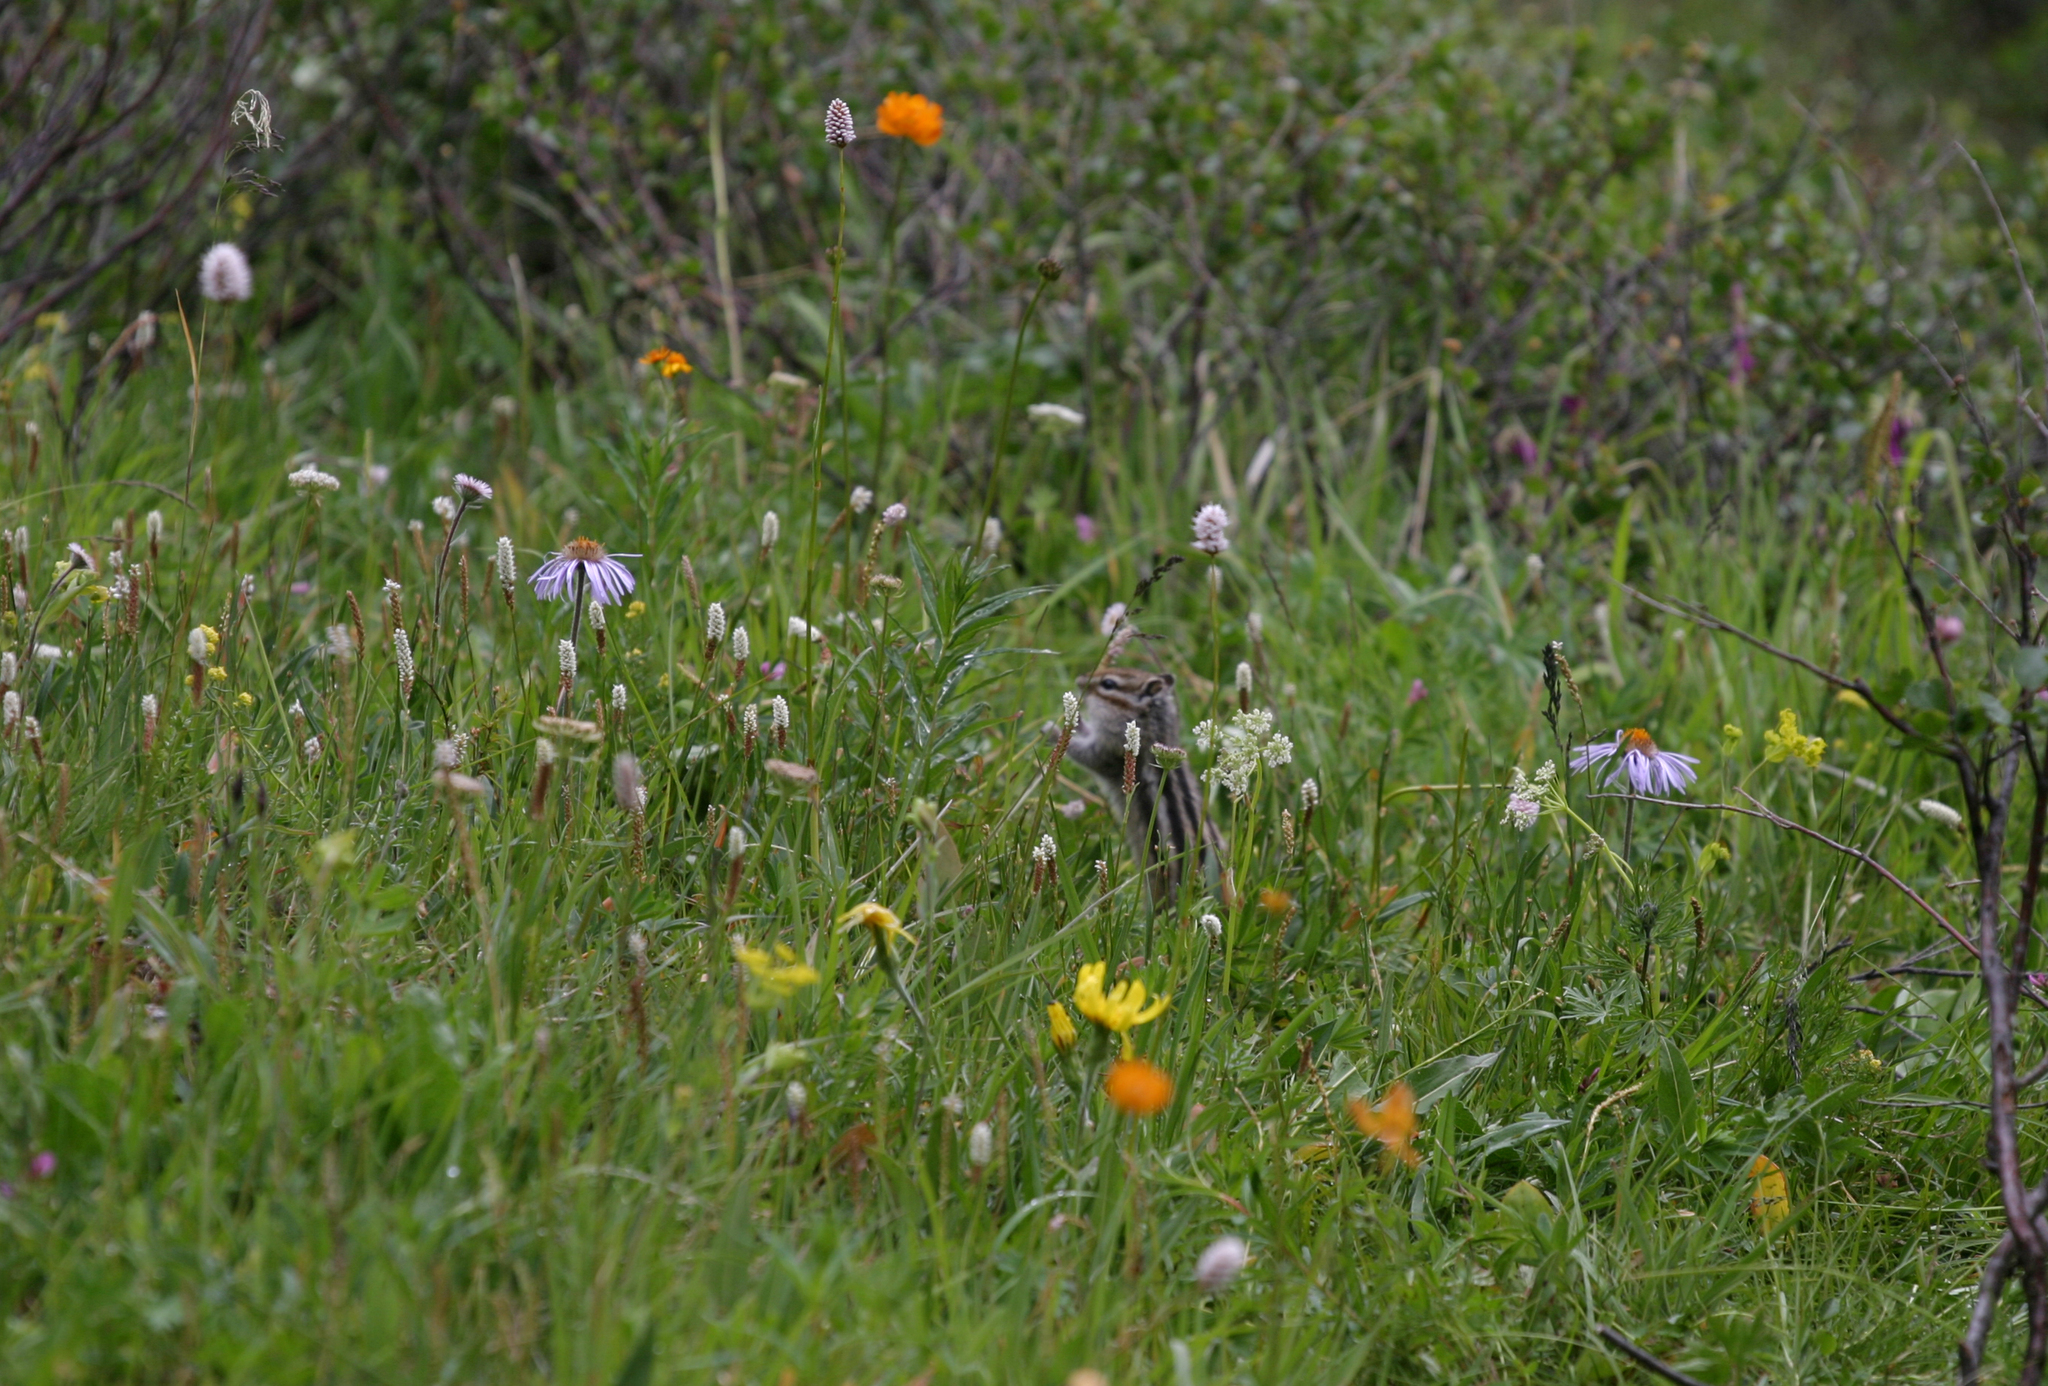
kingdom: Animalia
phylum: Chordata
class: Mammalia
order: Rodentia
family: Sciuridae
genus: Tamias
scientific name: Tamias sibiricus
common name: Siberian chipmunk
